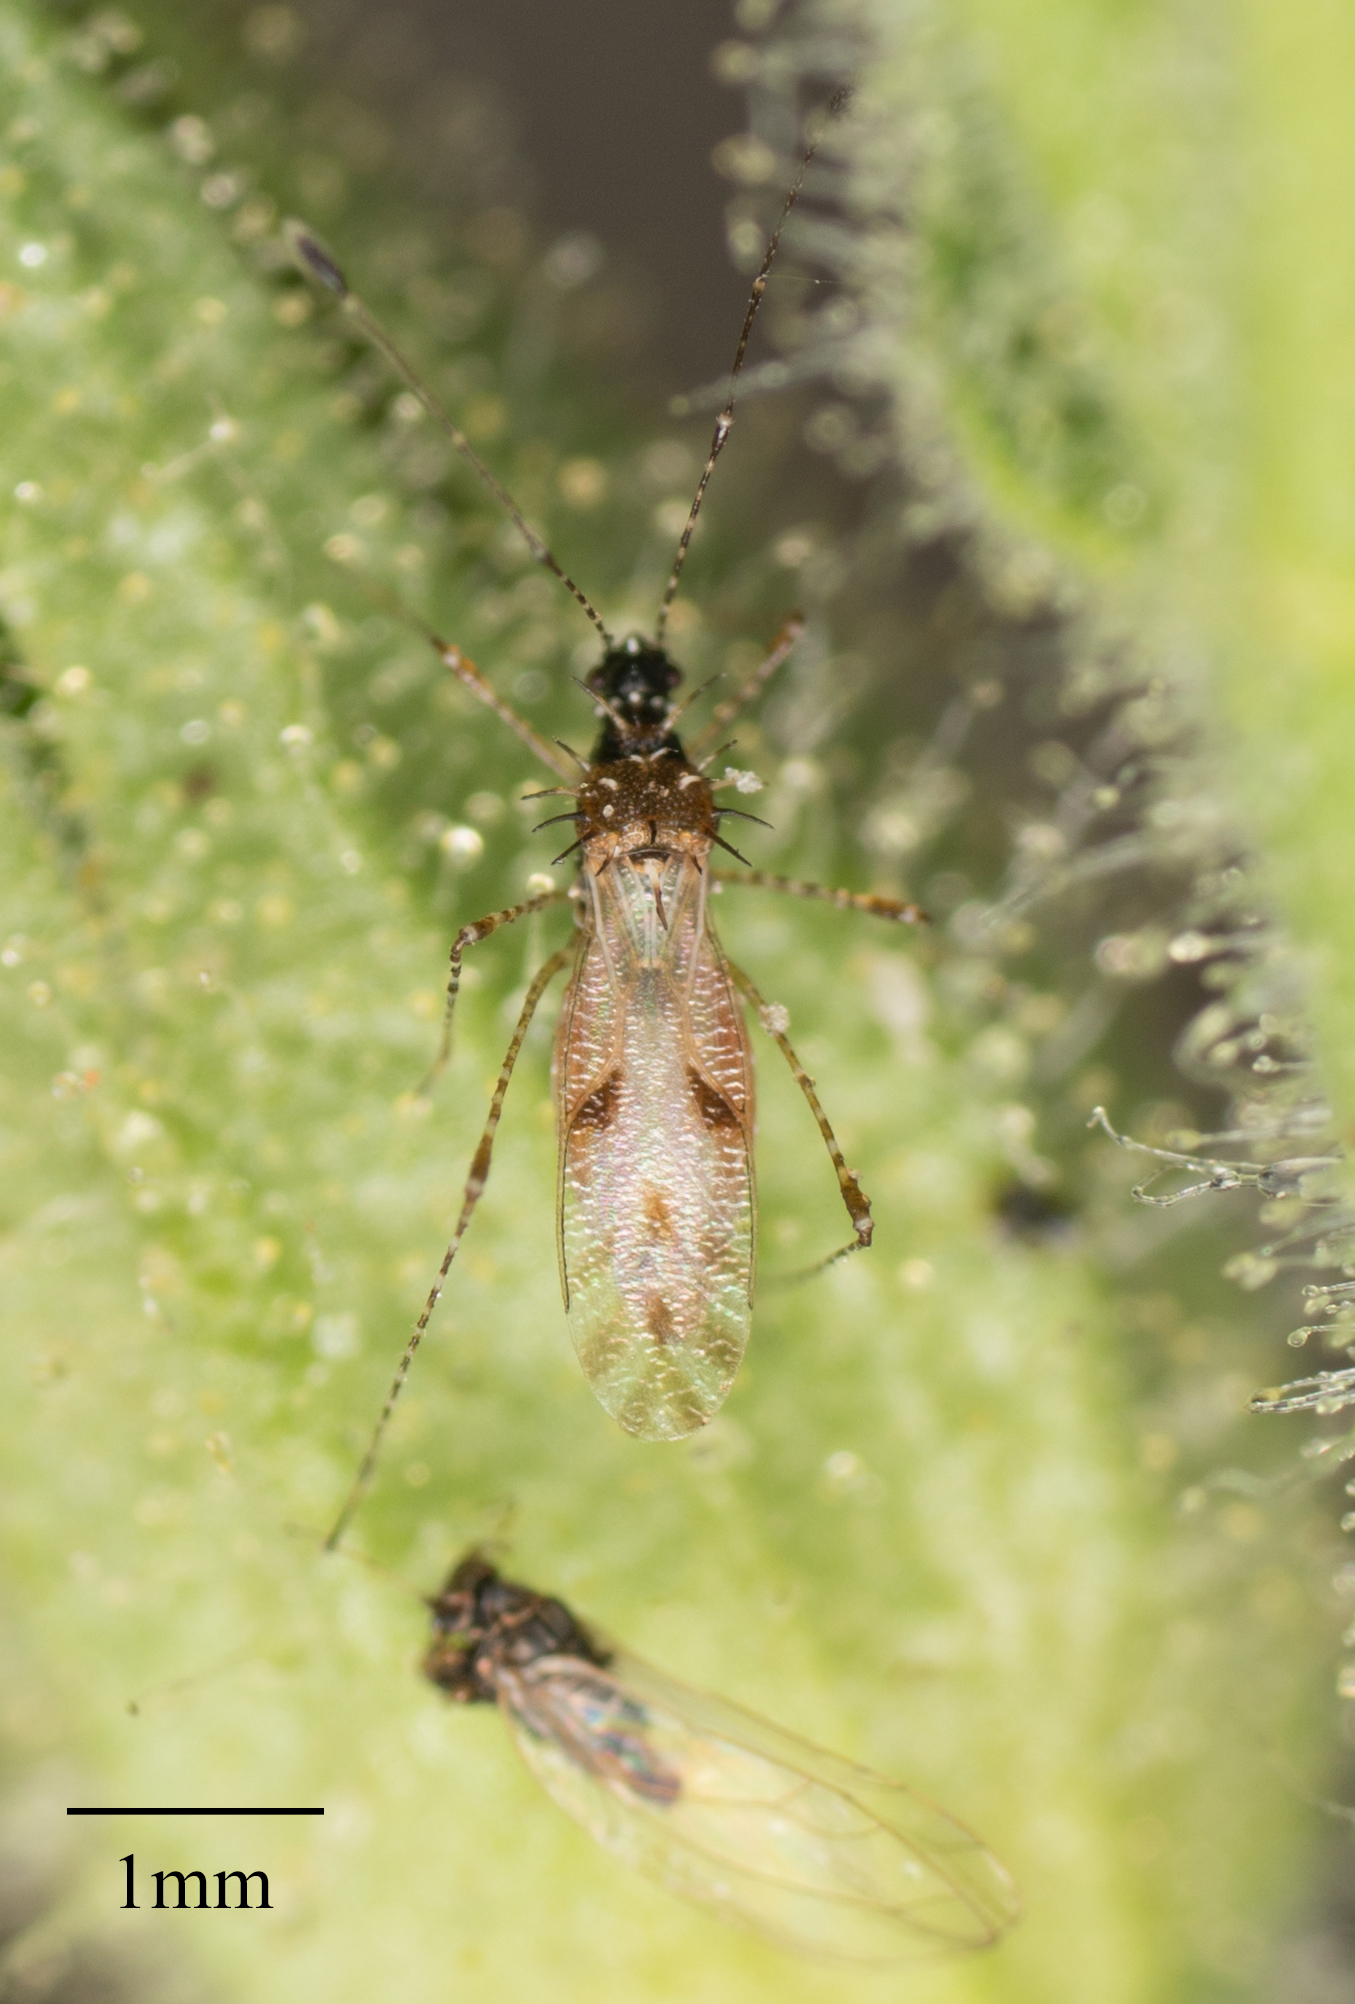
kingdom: Animalia
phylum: Arthropoda
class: Insecta
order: Hemiptera
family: Berytidae
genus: Pronotacantha
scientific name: Pronotacantha annulata
